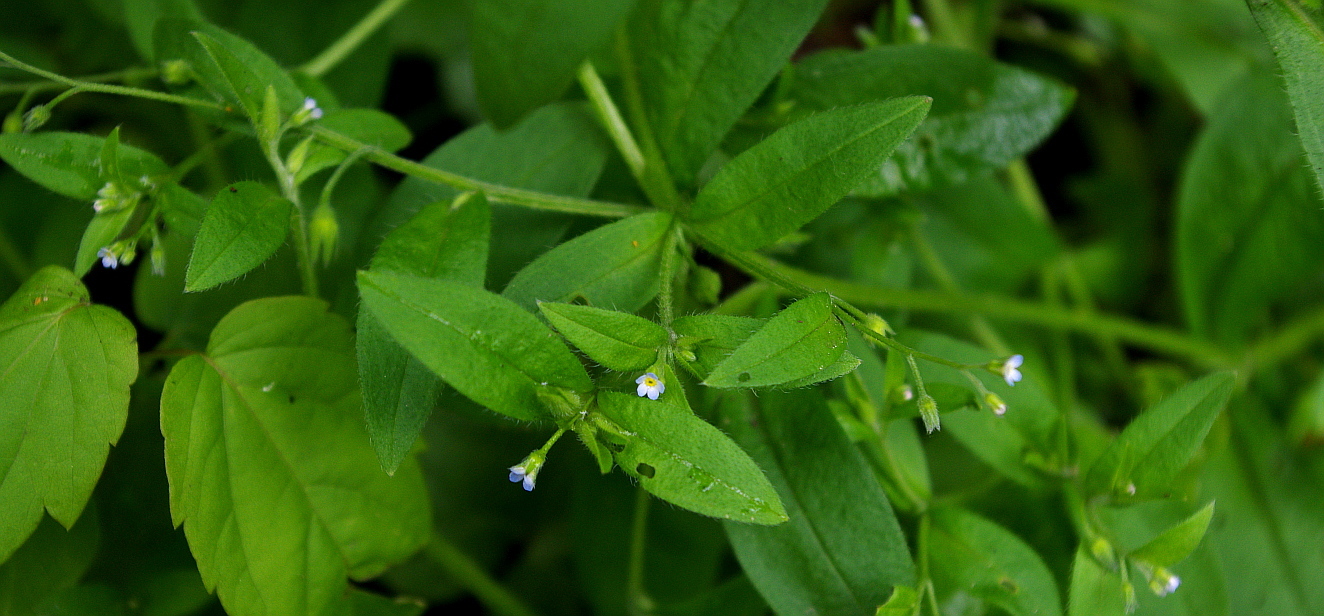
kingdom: Plantae
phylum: Tracheophyta
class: Magnoliopsida
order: Boraginales
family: Boraginaceae
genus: Myosotis
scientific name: Myosotis sparsiflora
